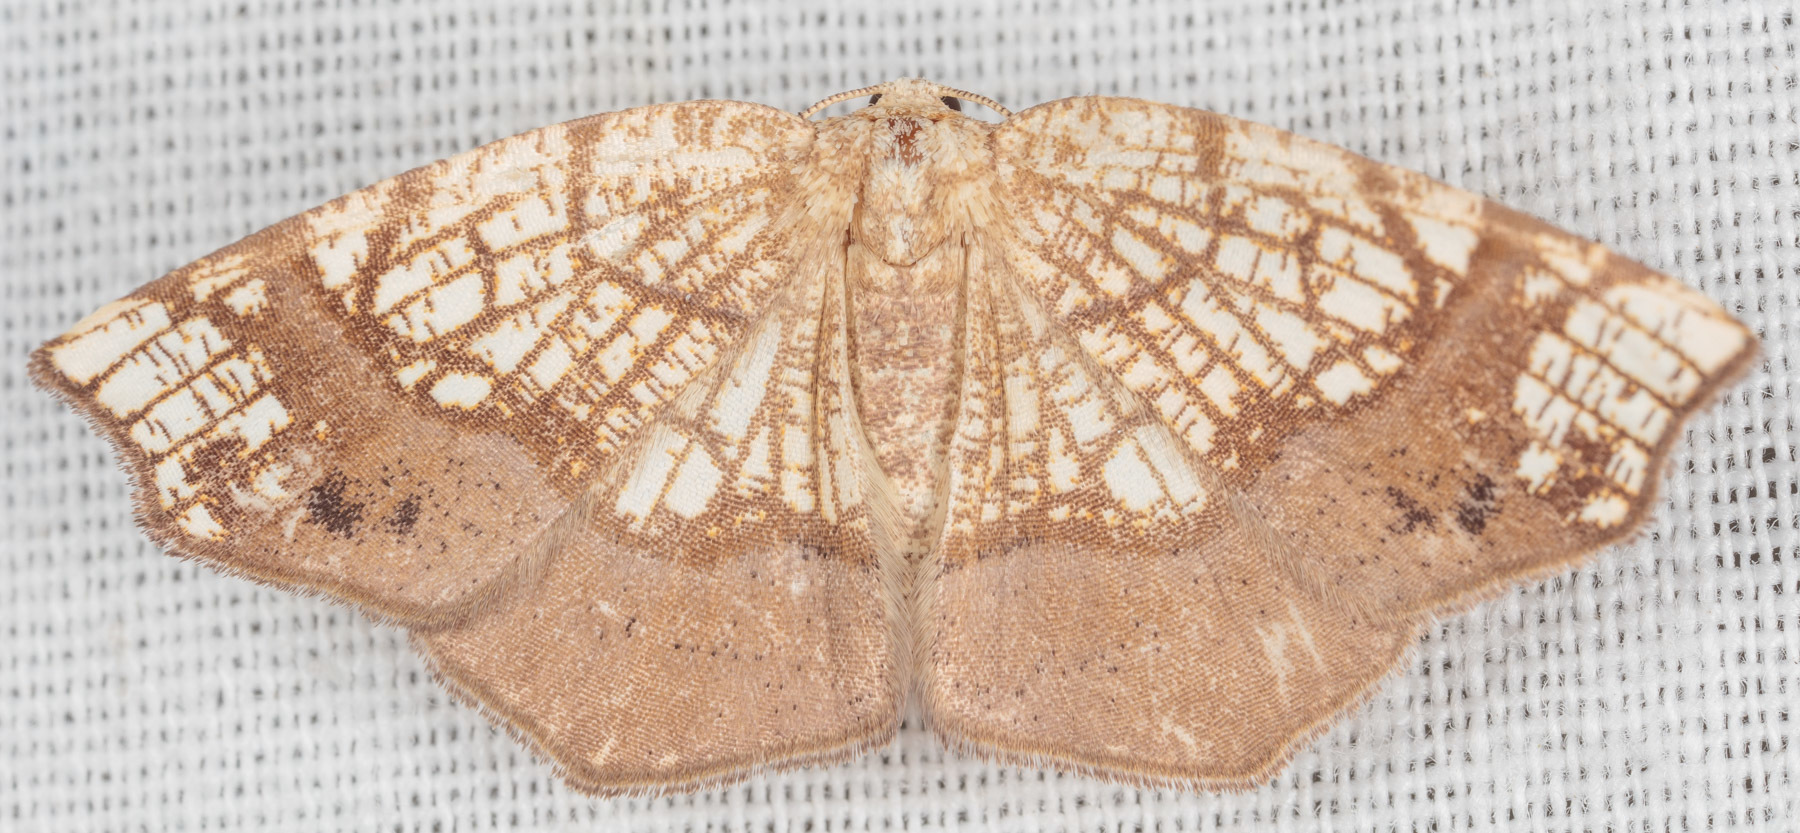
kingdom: Animalia
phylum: Arthropoda
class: Insecta
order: Lepidoptera
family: Geometridae
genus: Nematocampa
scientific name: Nematocampa resistaria
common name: Horned spanworm moth
